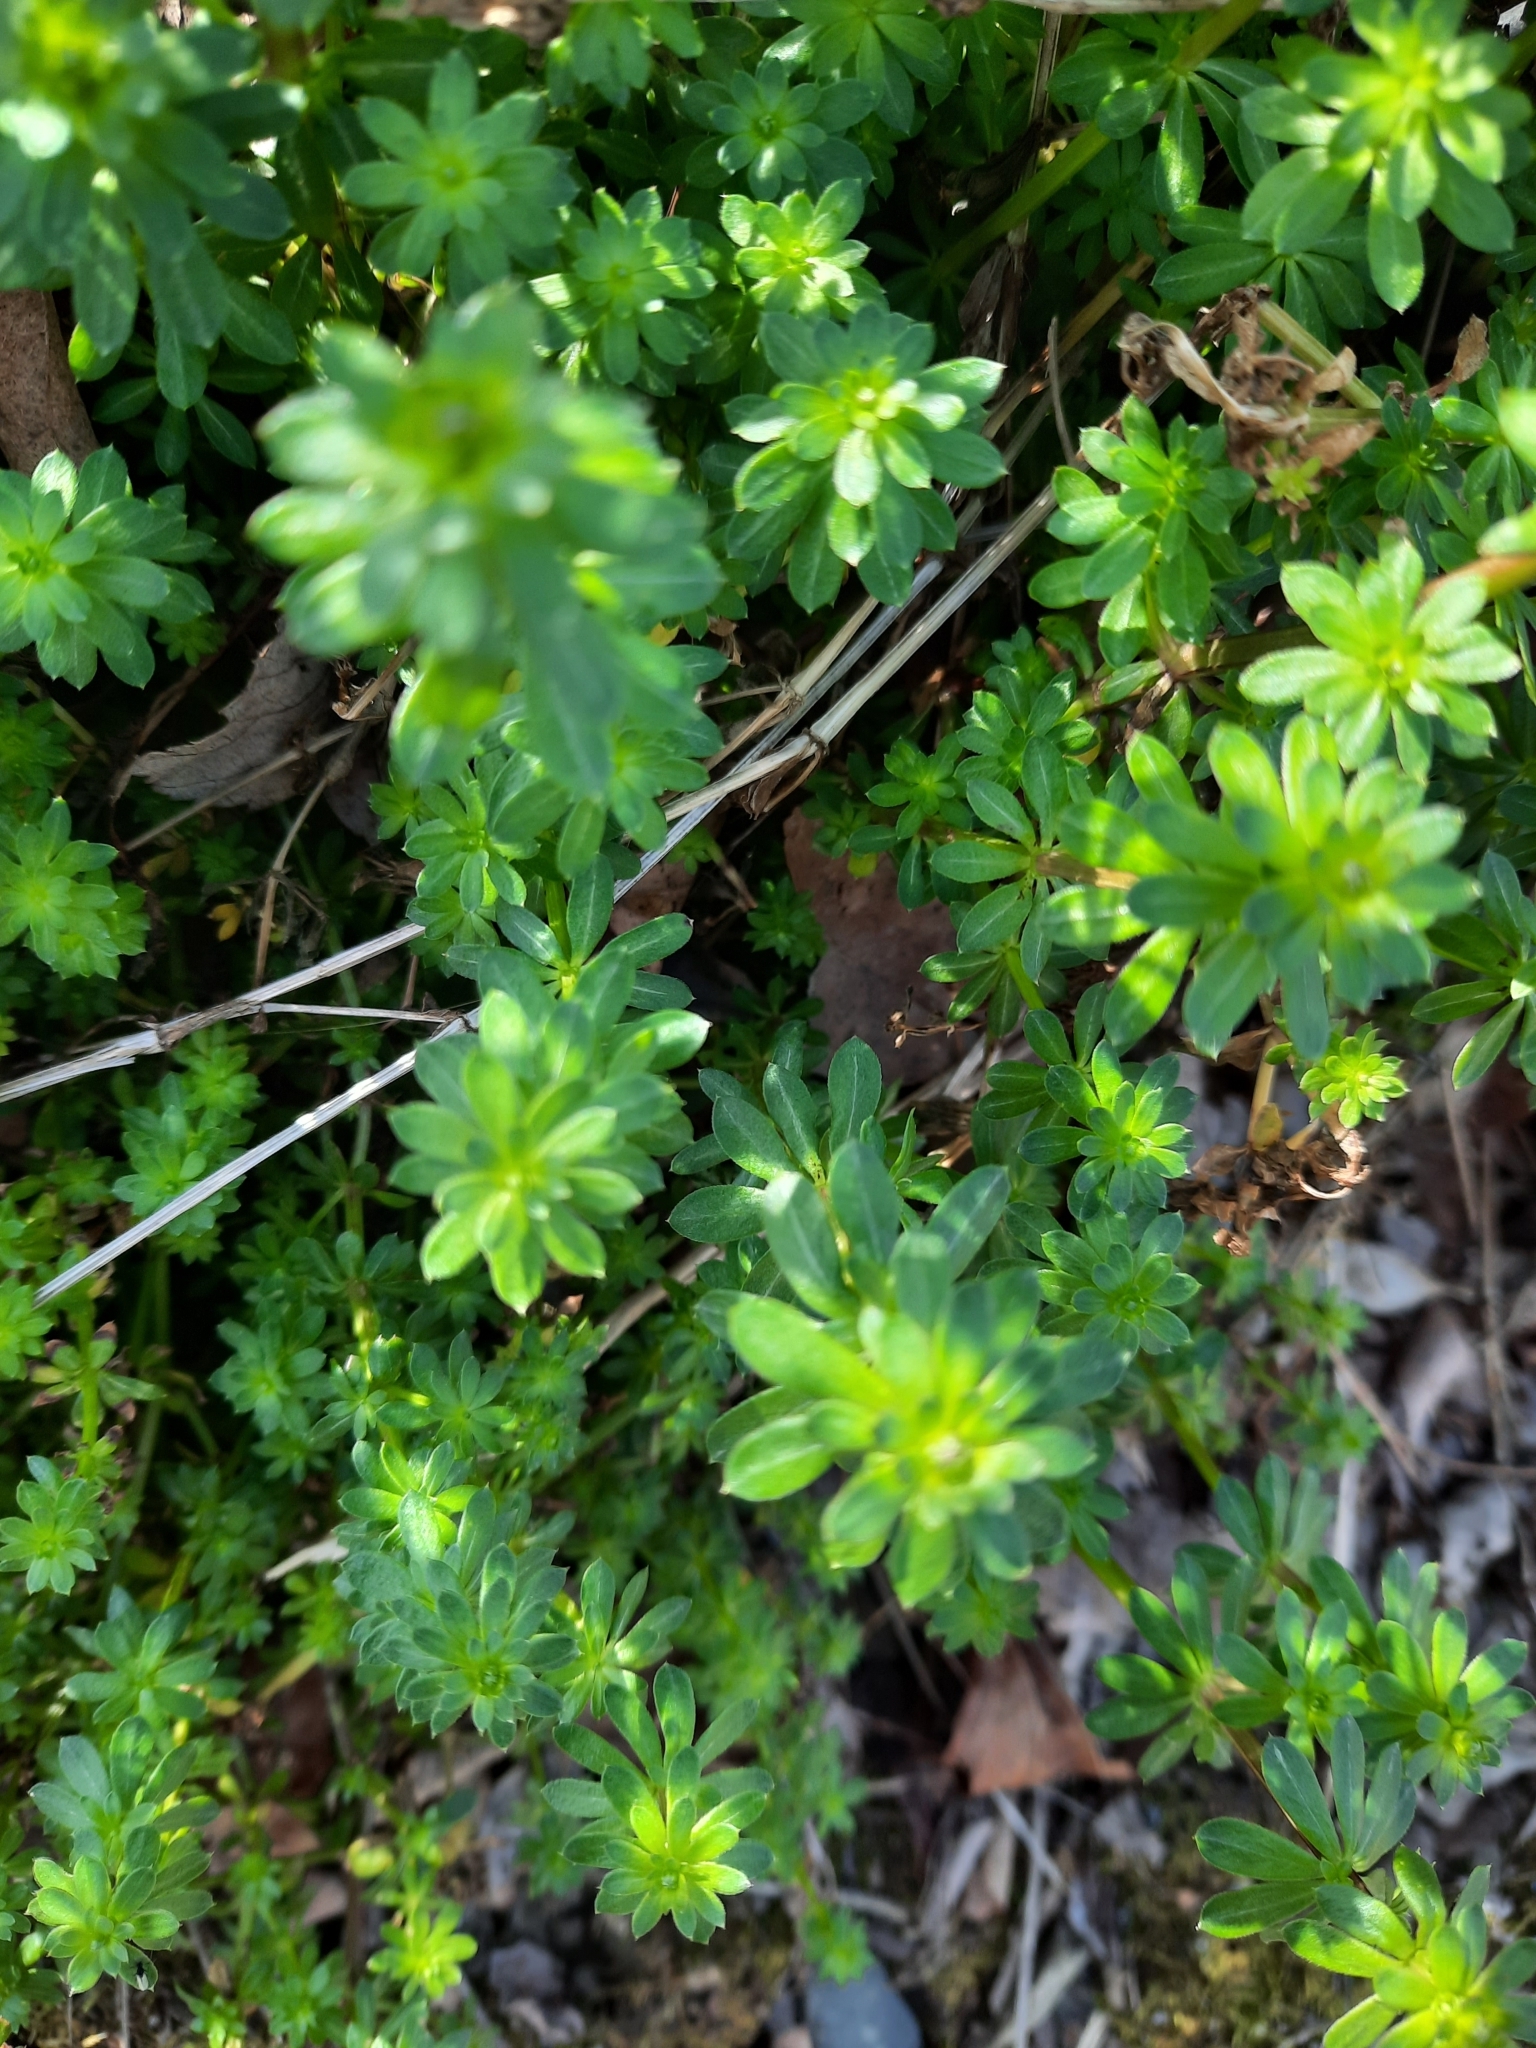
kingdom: Plantae
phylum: Tracheophyta
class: Magnoliopsida
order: Gentianales
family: Rubiaceae
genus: Galium
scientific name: Galium mollugo
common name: Hedge bedstraw
